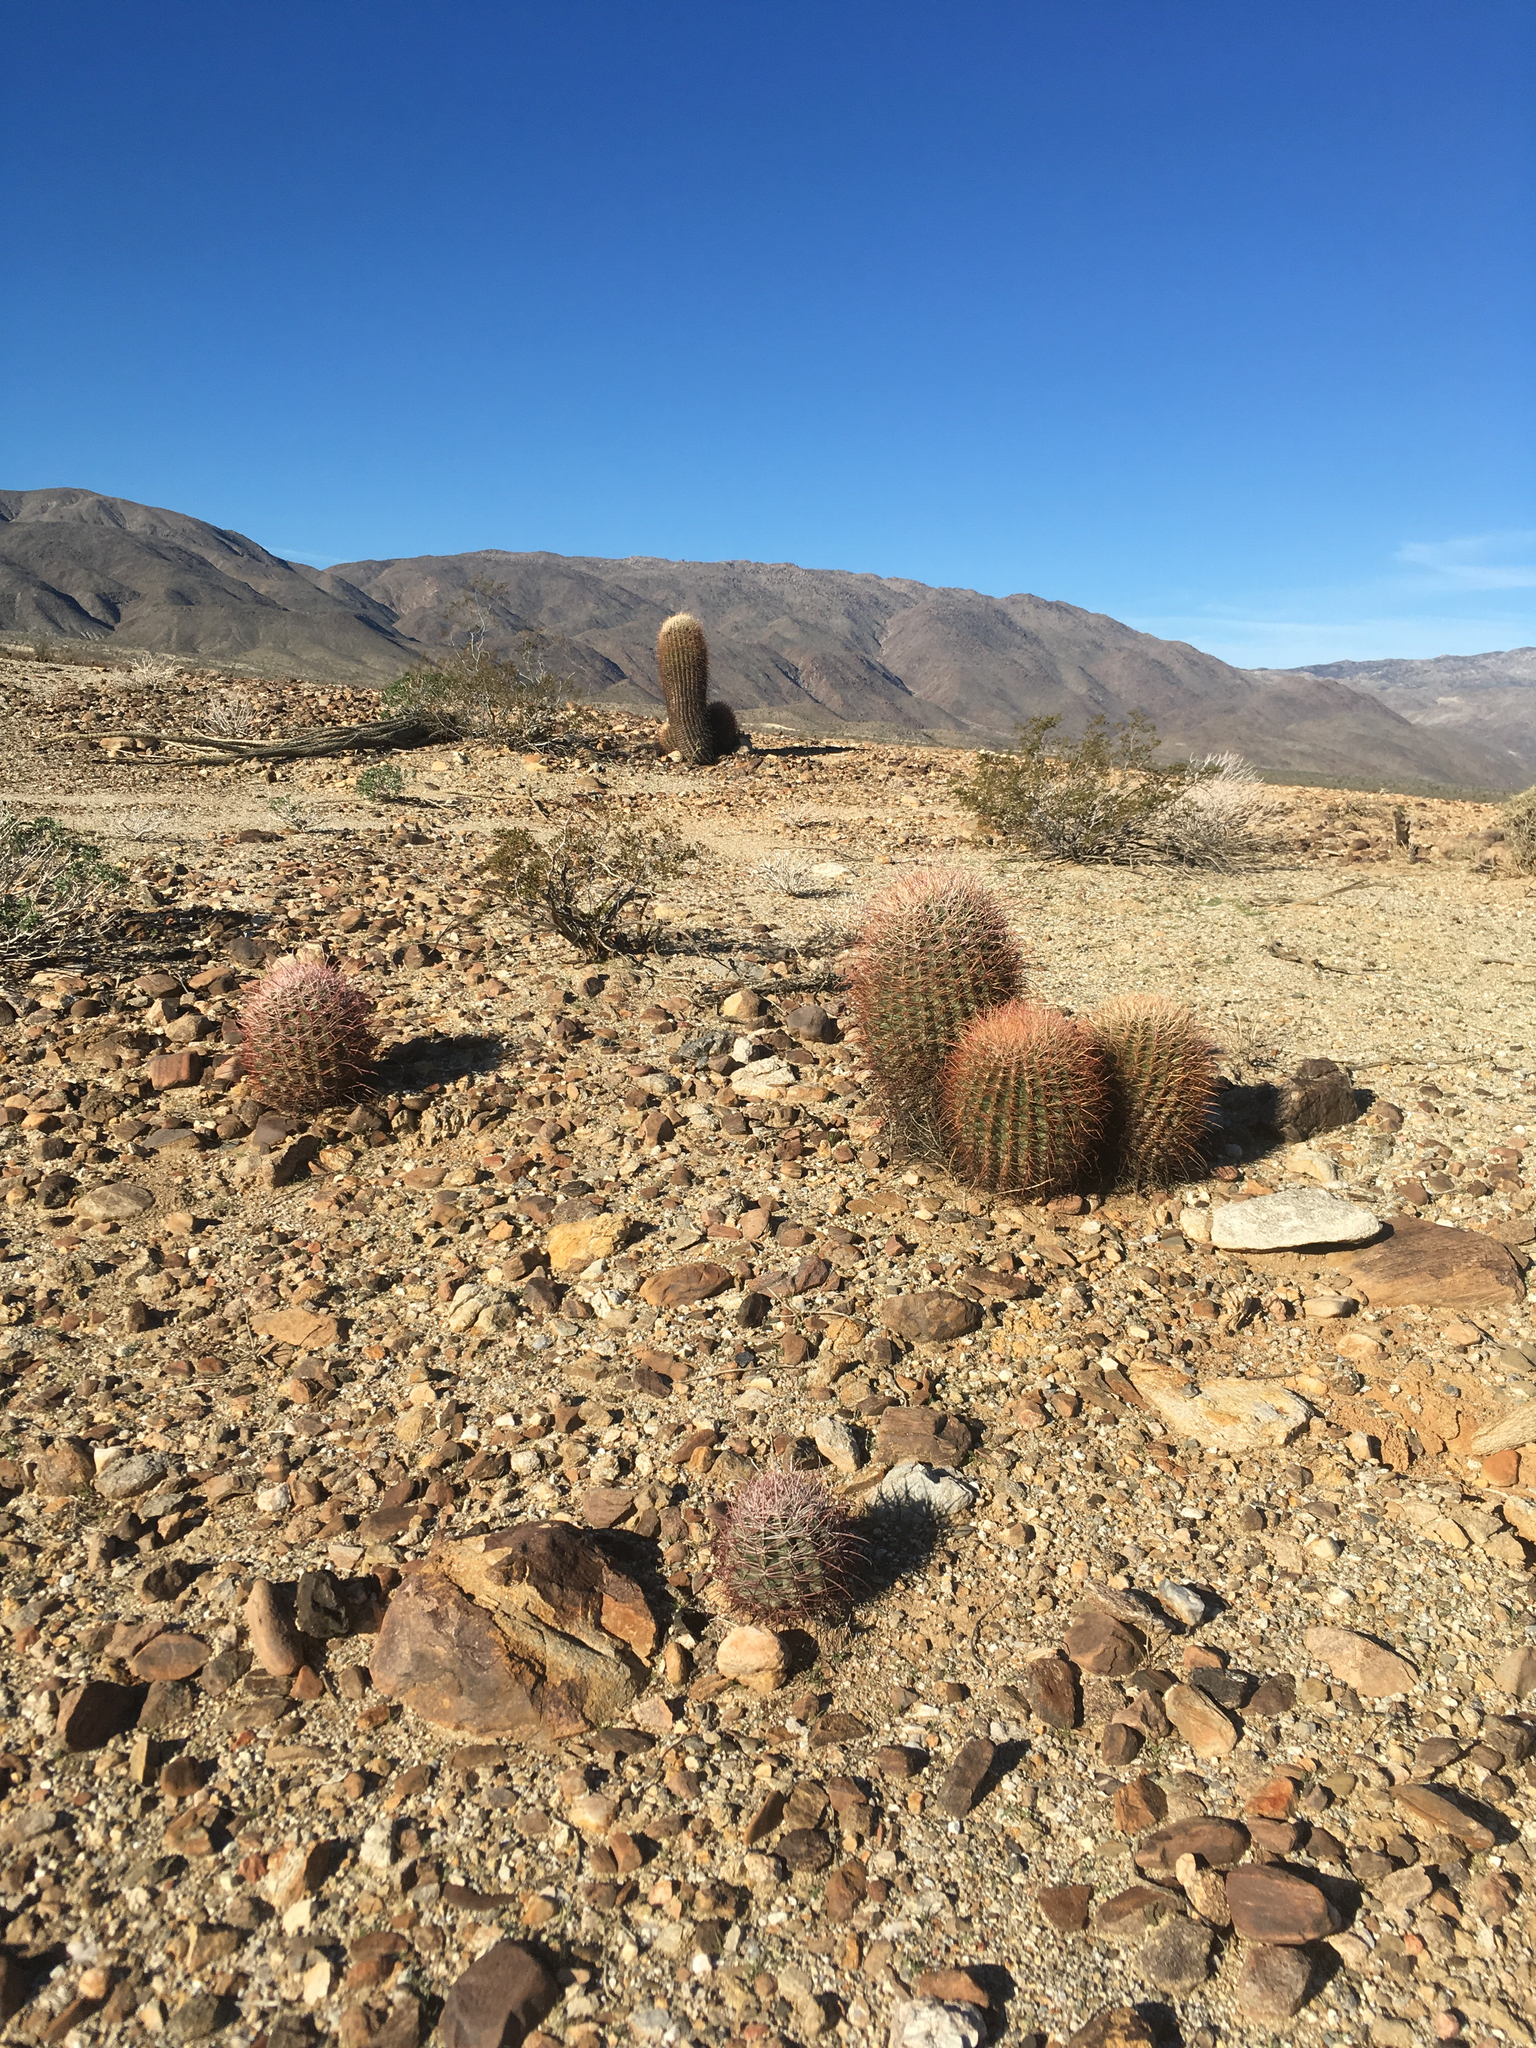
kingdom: Plantae
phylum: Tracheophyta
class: Magnoliopsida
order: Caryophyllales
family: Cactaceae
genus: Ferocactus
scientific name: Ferocactus cylindraceus
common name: California barrel cactus
